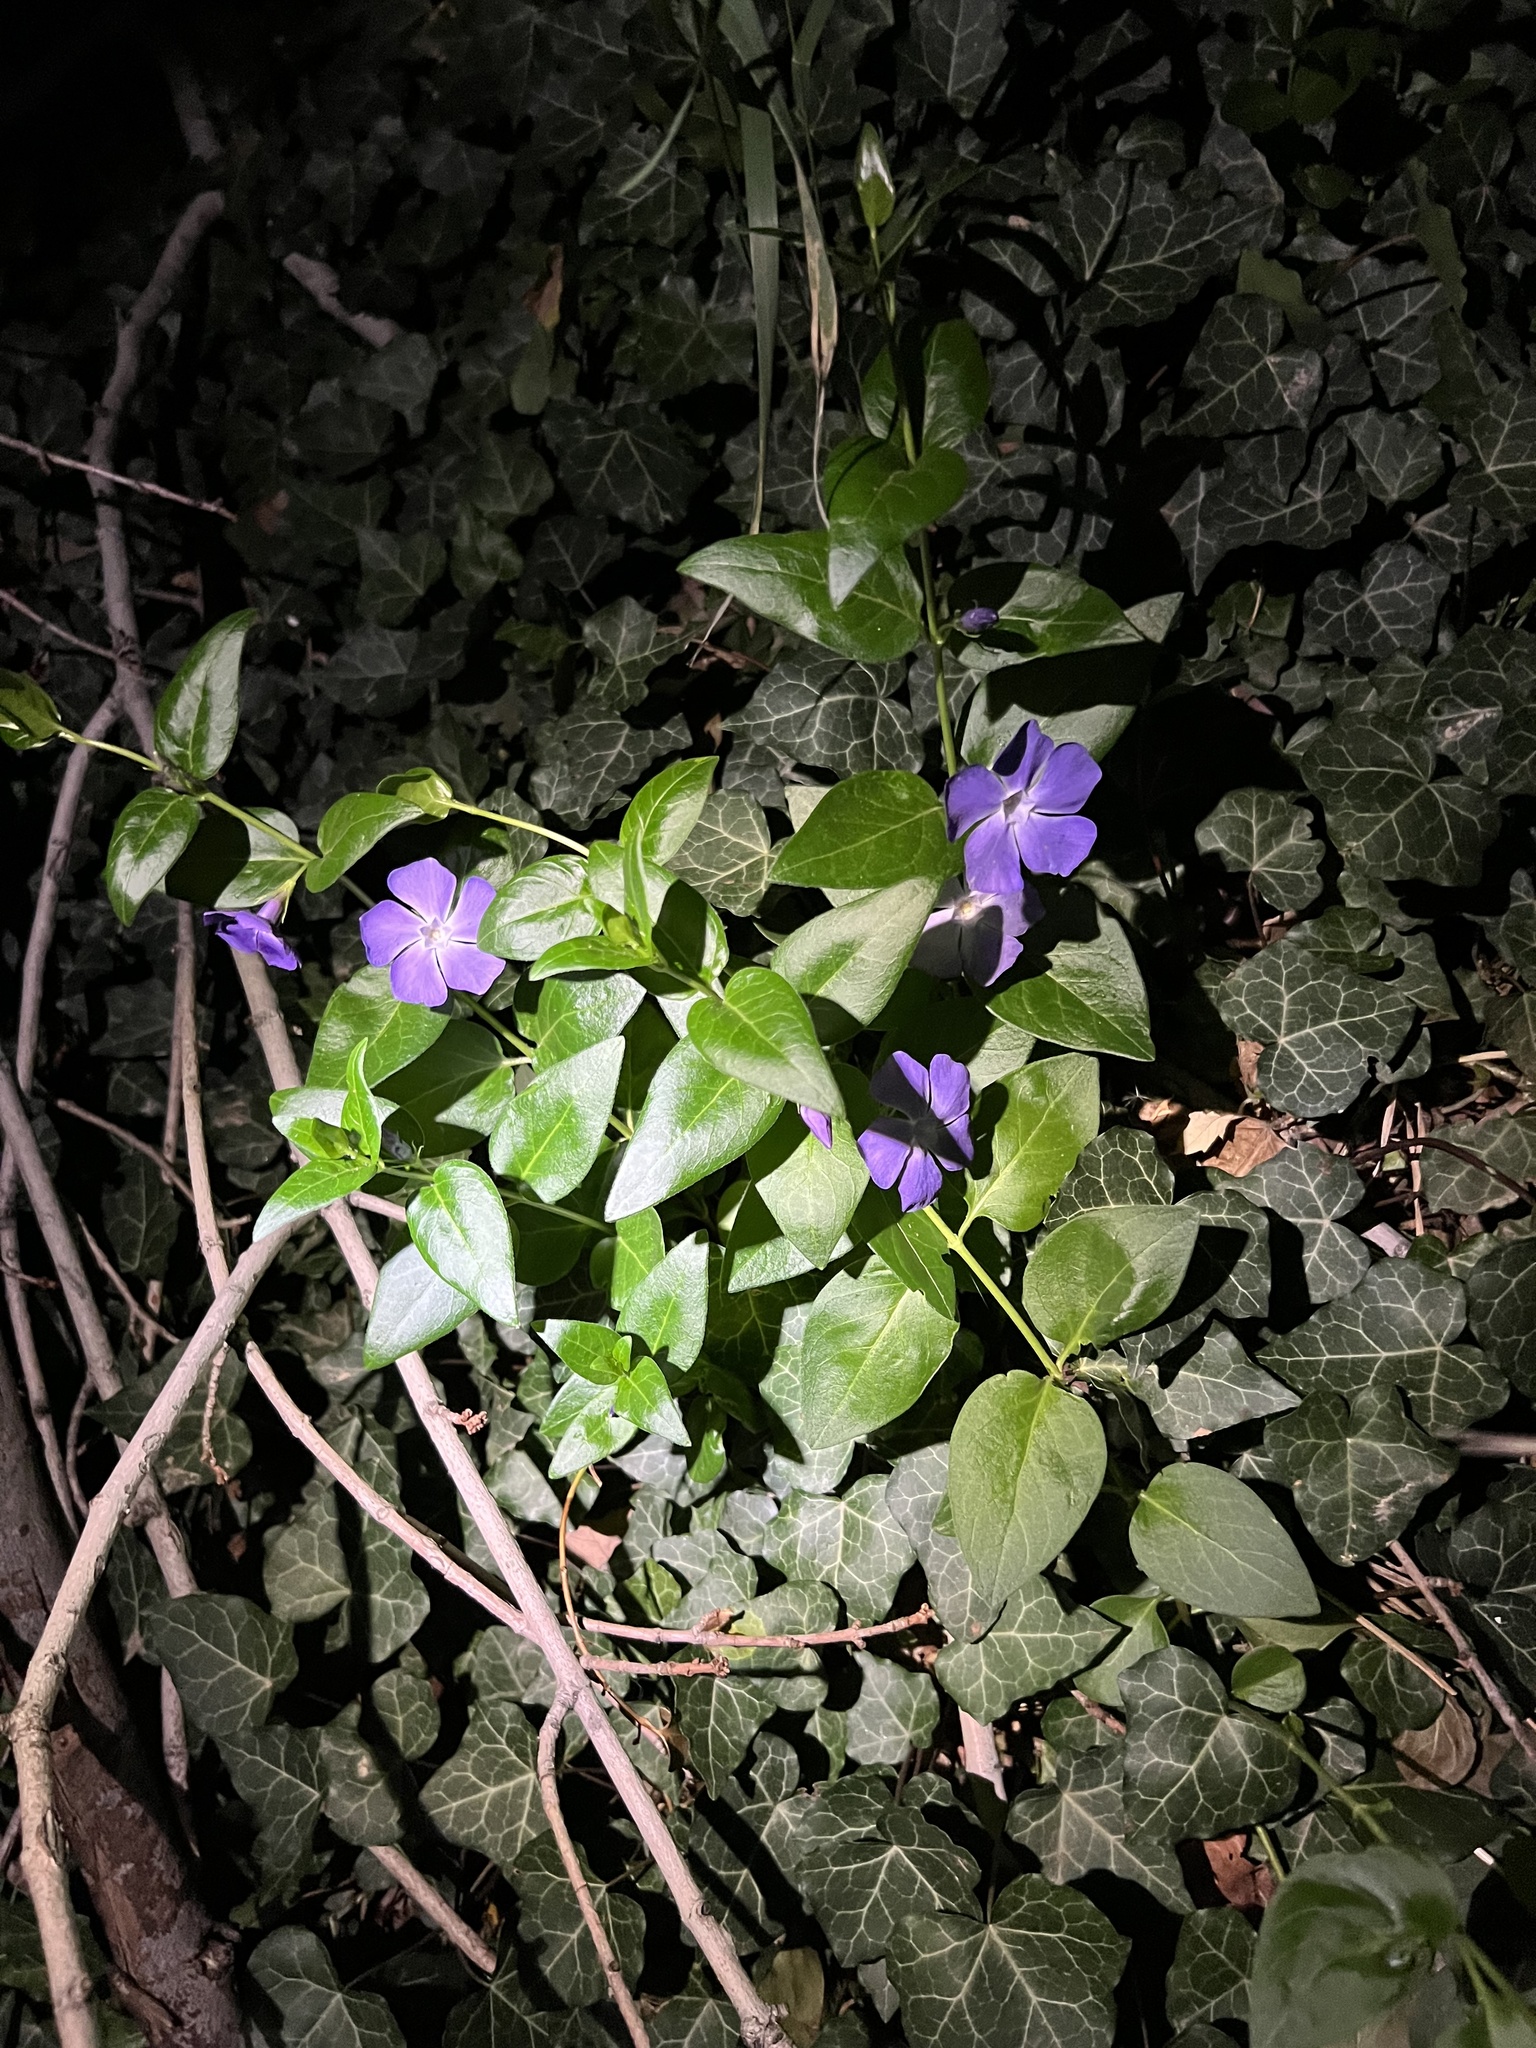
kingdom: Plantae
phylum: Tracheophyta
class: Magnoliopsida
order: Gentianales
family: Apocynaceae
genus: Vinca
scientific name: Vinca major
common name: Greater periwinkle
